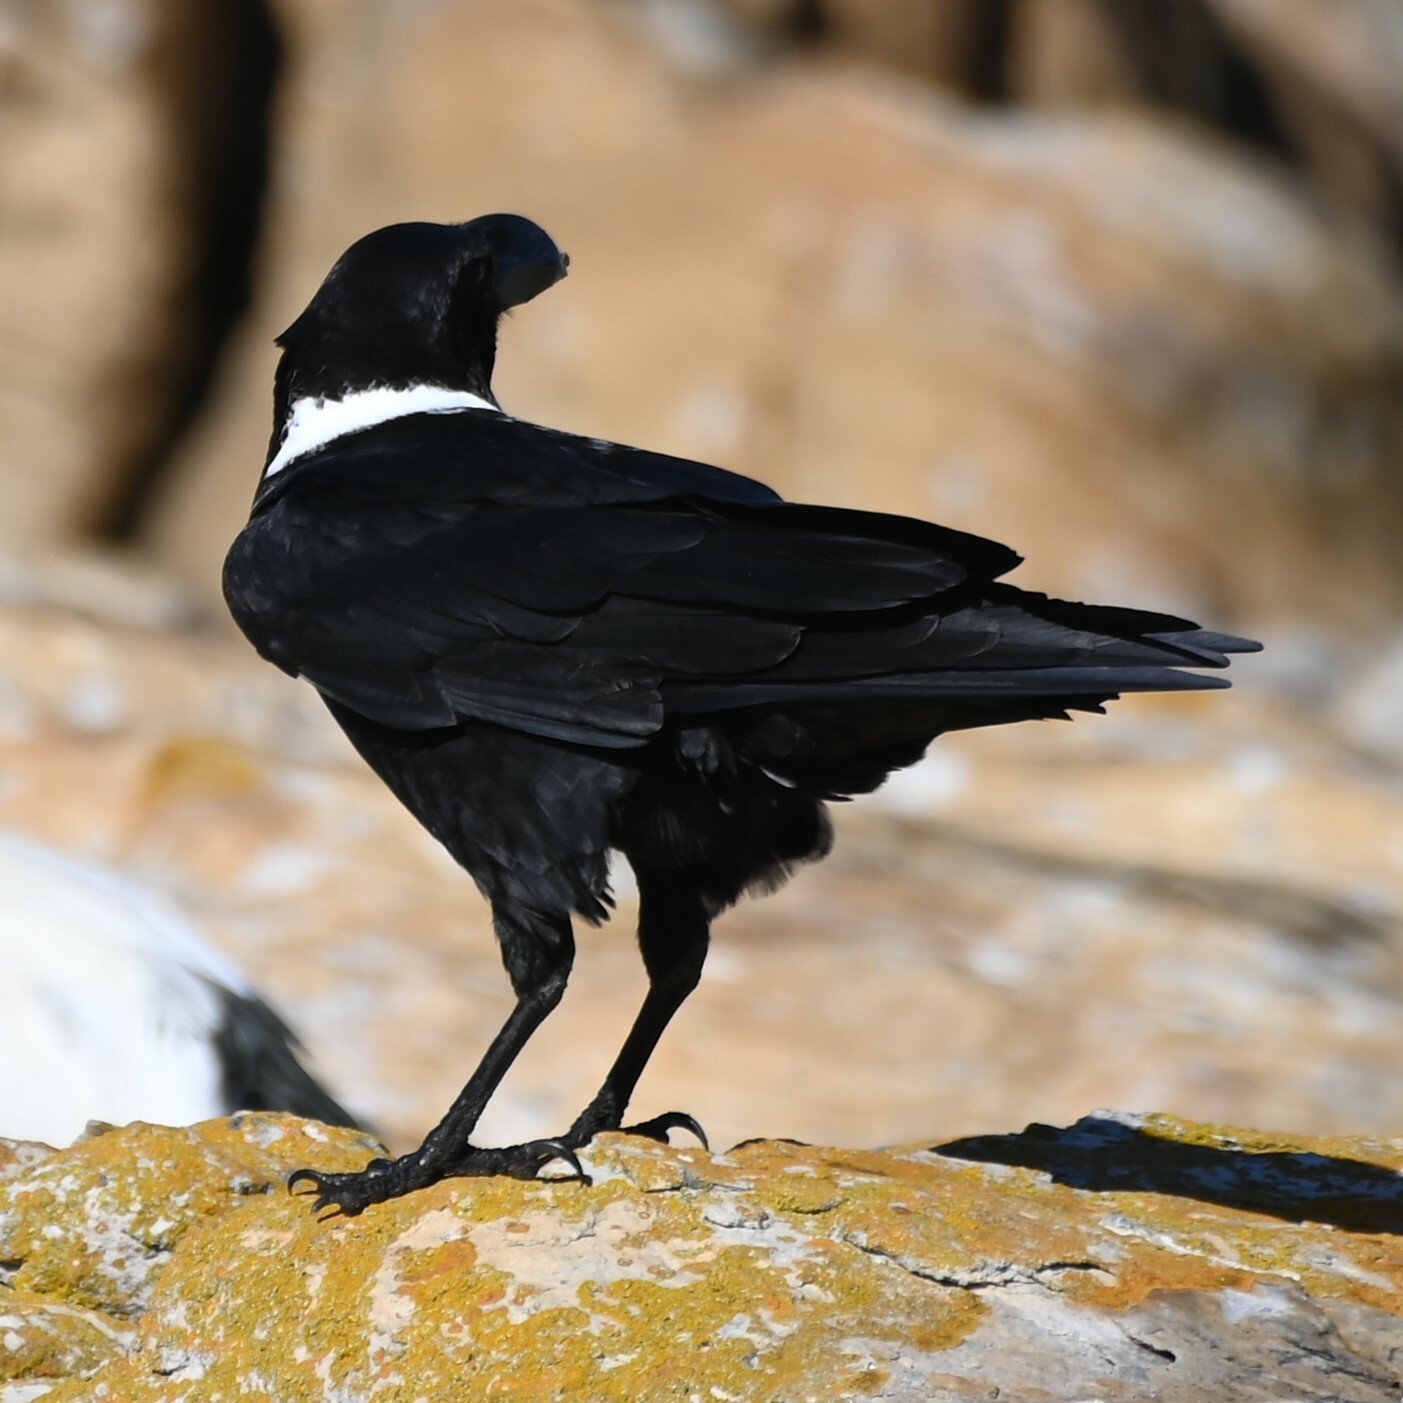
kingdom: Animalia
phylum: Chordata
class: Aves
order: Passeriformes
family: Corvidae
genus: Corvus
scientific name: Corvus albicollis
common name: White-necked raven
